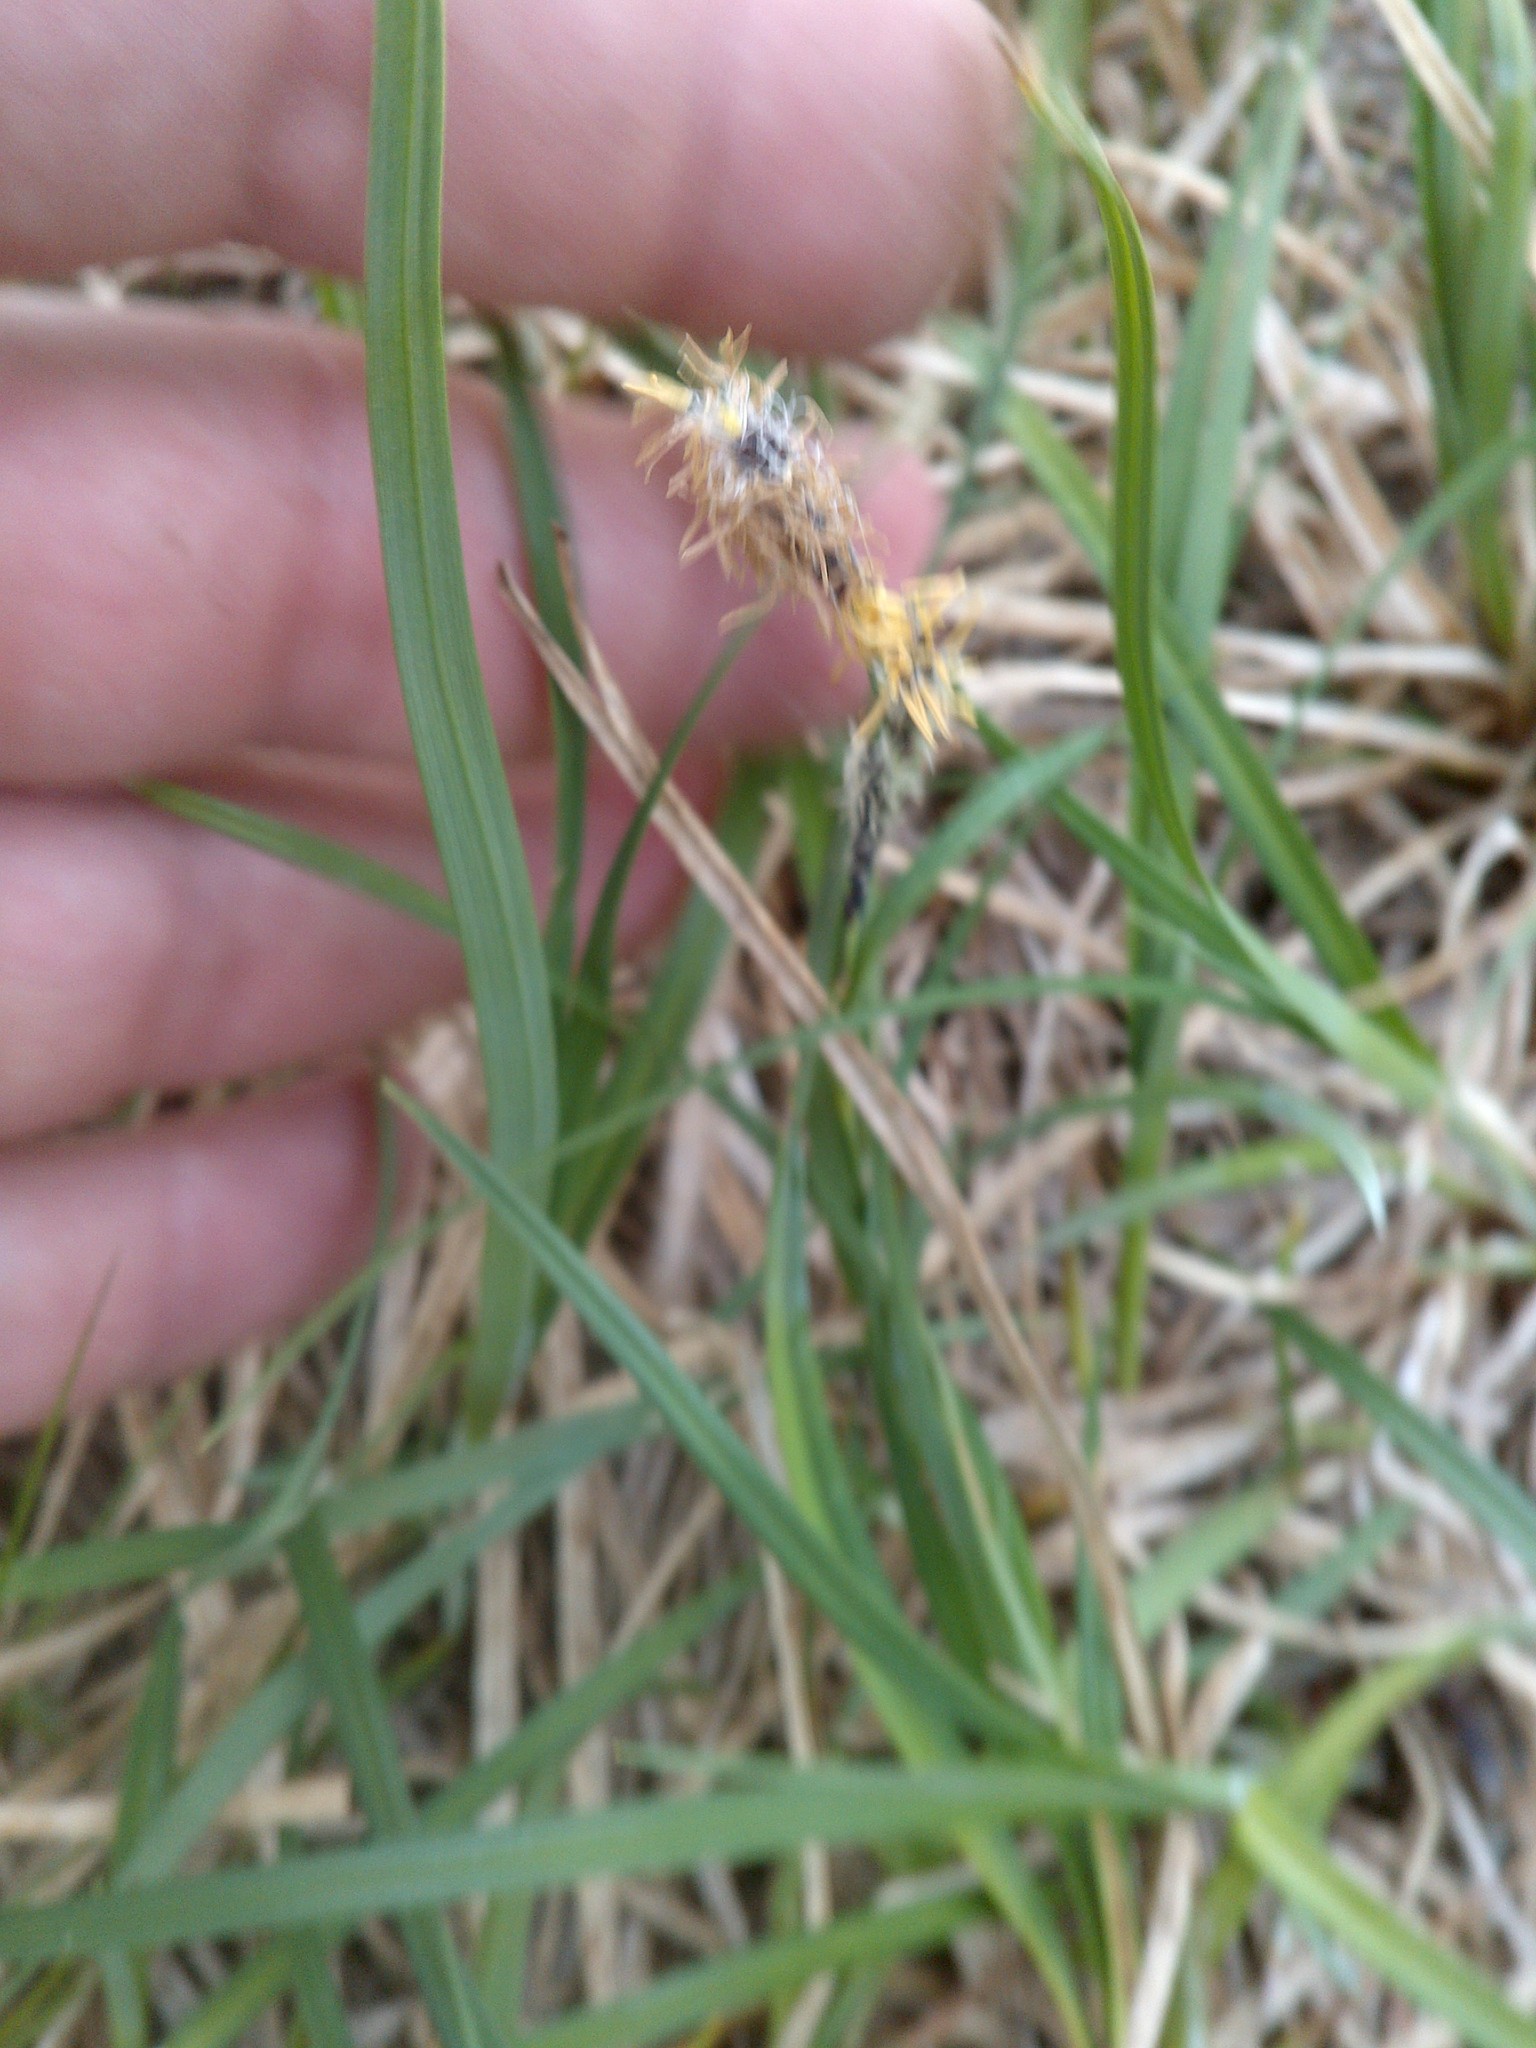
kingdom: Plantae
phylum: Tracheophyta
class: Liliopsida
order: Poales
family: Cyperaceae
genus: Carex
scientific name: Carex bigelowii
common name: Stiff sedge
